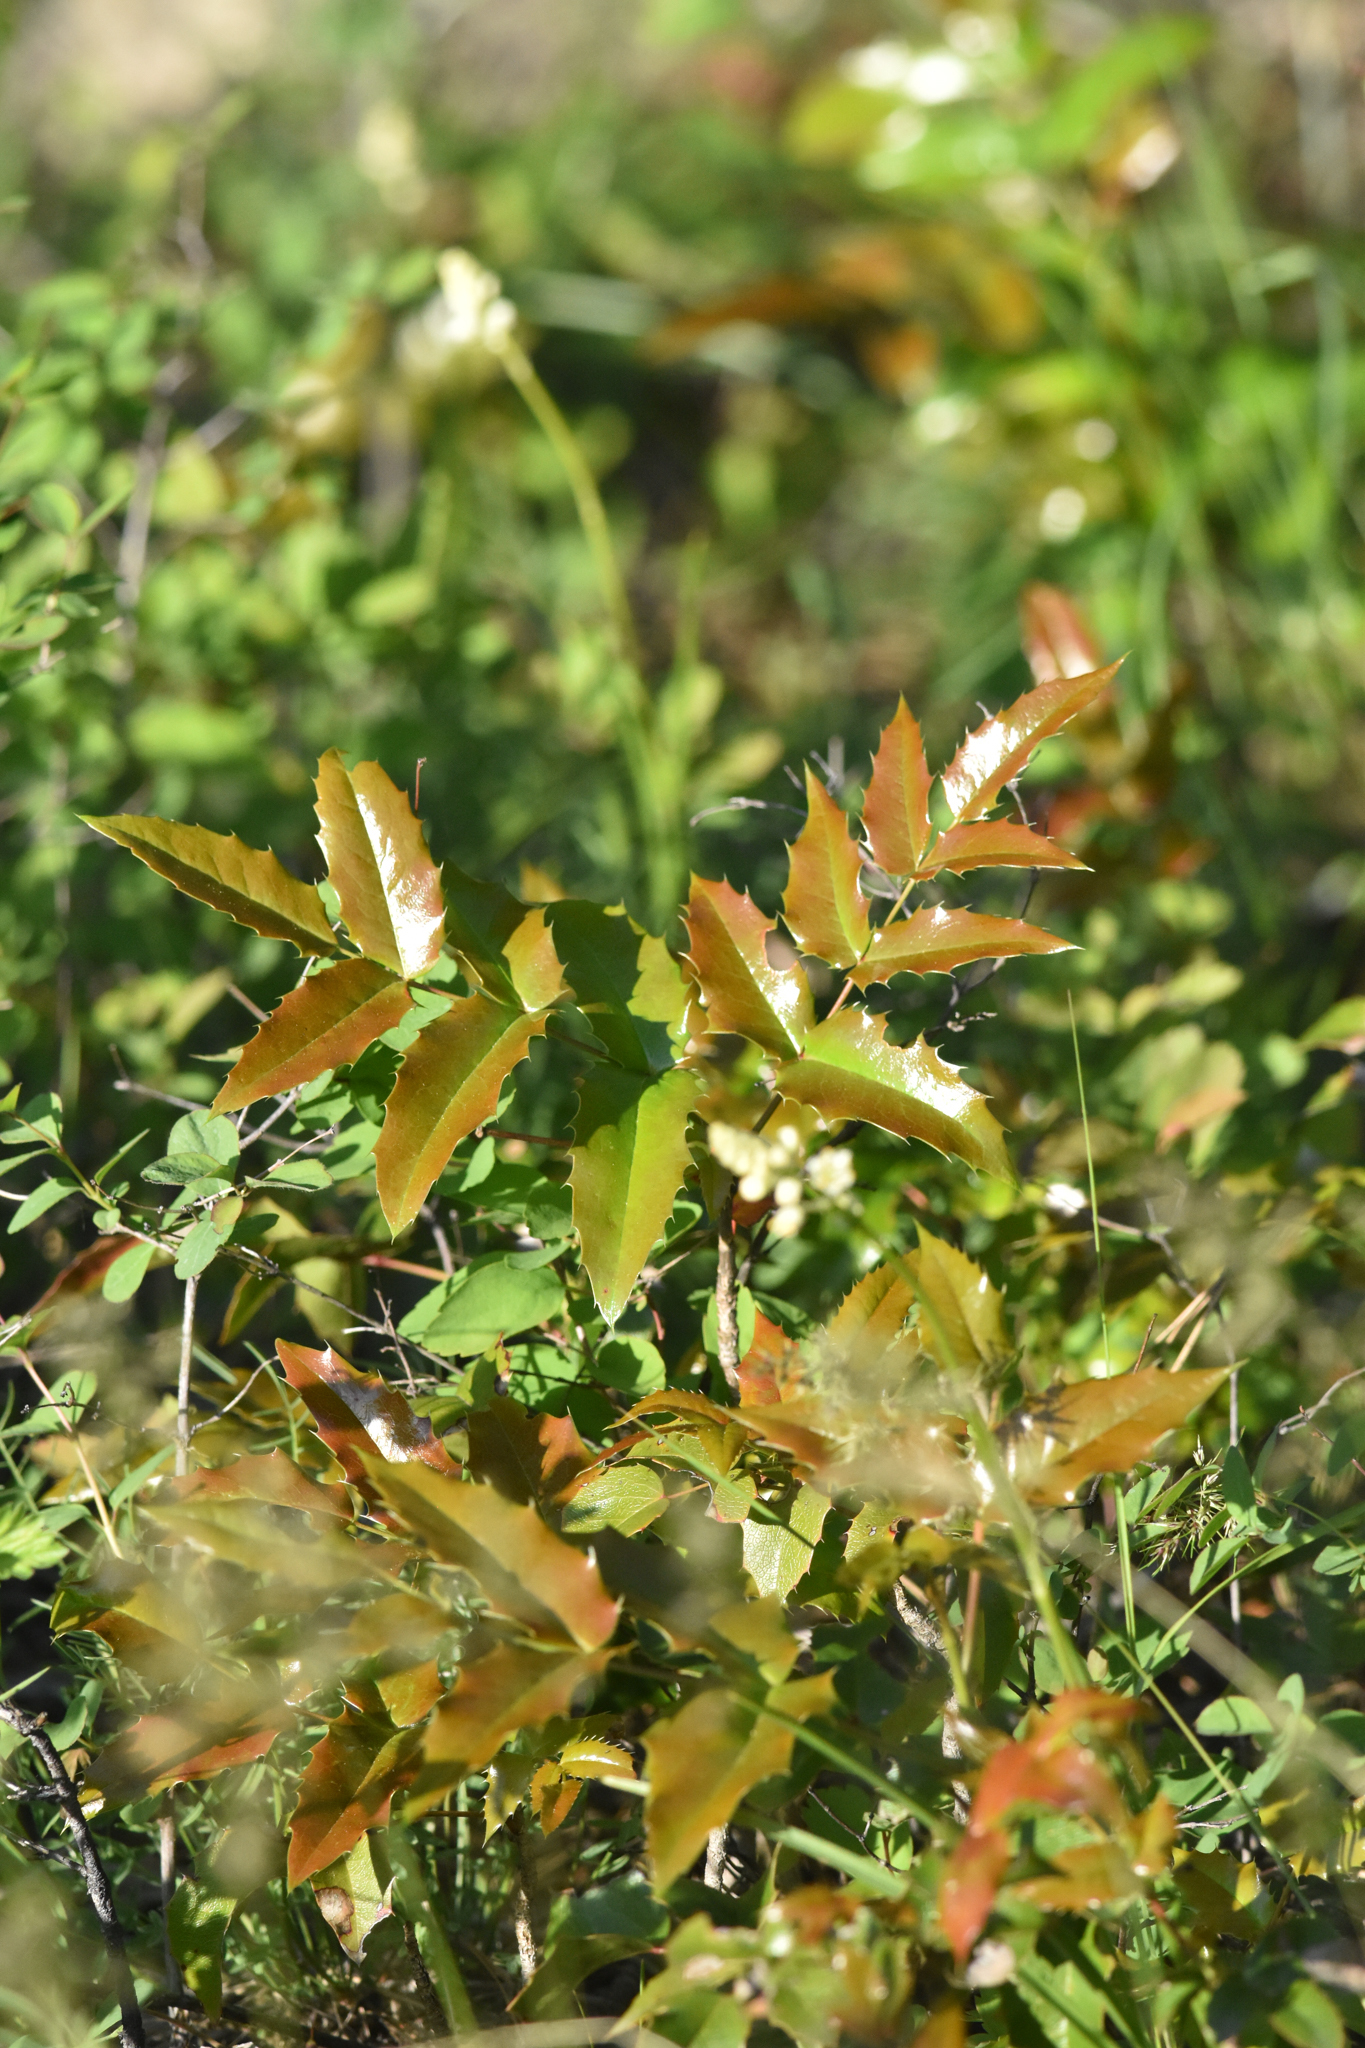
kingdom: Plantae
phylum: Tracheophyta
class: Magnoliopsida
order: Ranunculales
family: Berberidaceae
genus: Mahonia
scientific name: Mahonia aquifolium
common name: Oregon-grape
